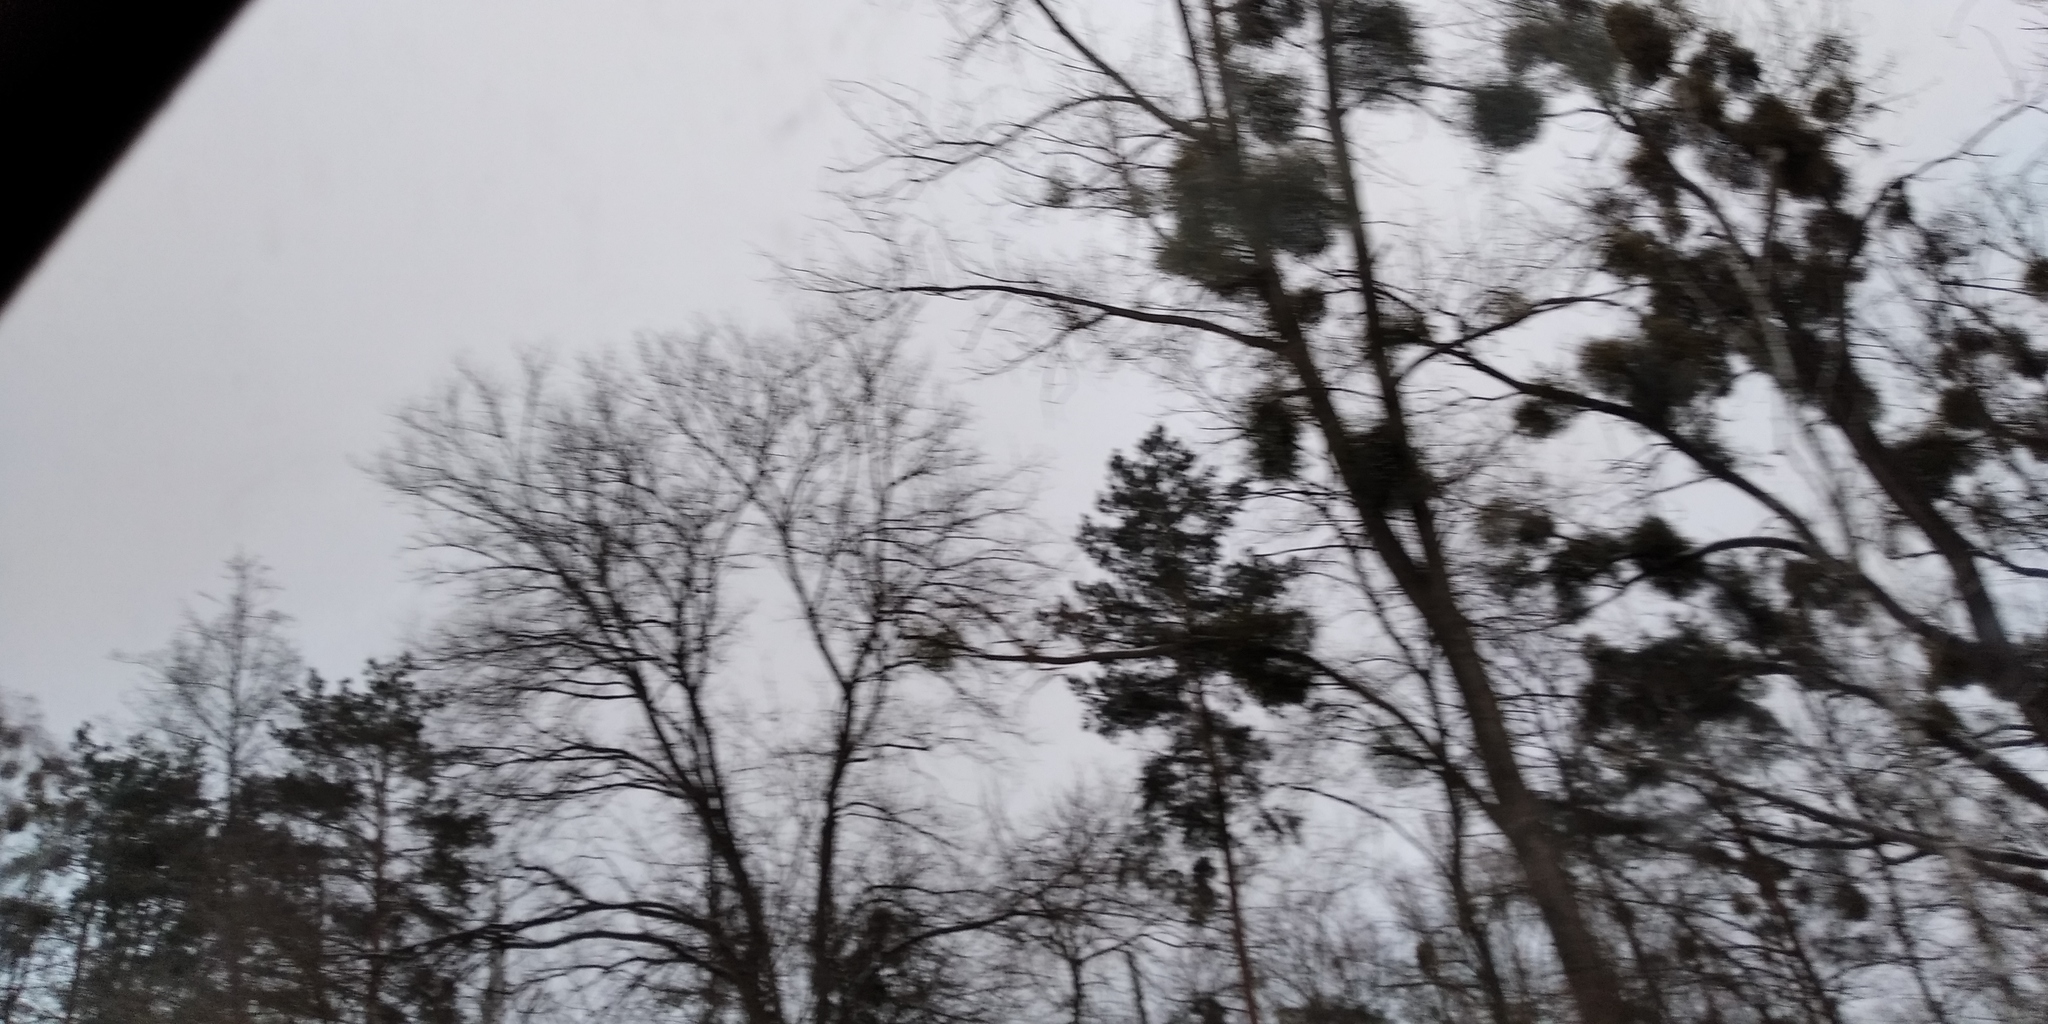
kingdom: Plantae
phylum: Tracheophyta
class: Magnoliopsida
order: Santalales
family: Viscaceae
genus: Viscum
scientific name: Viscum album
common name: Mistletoe
